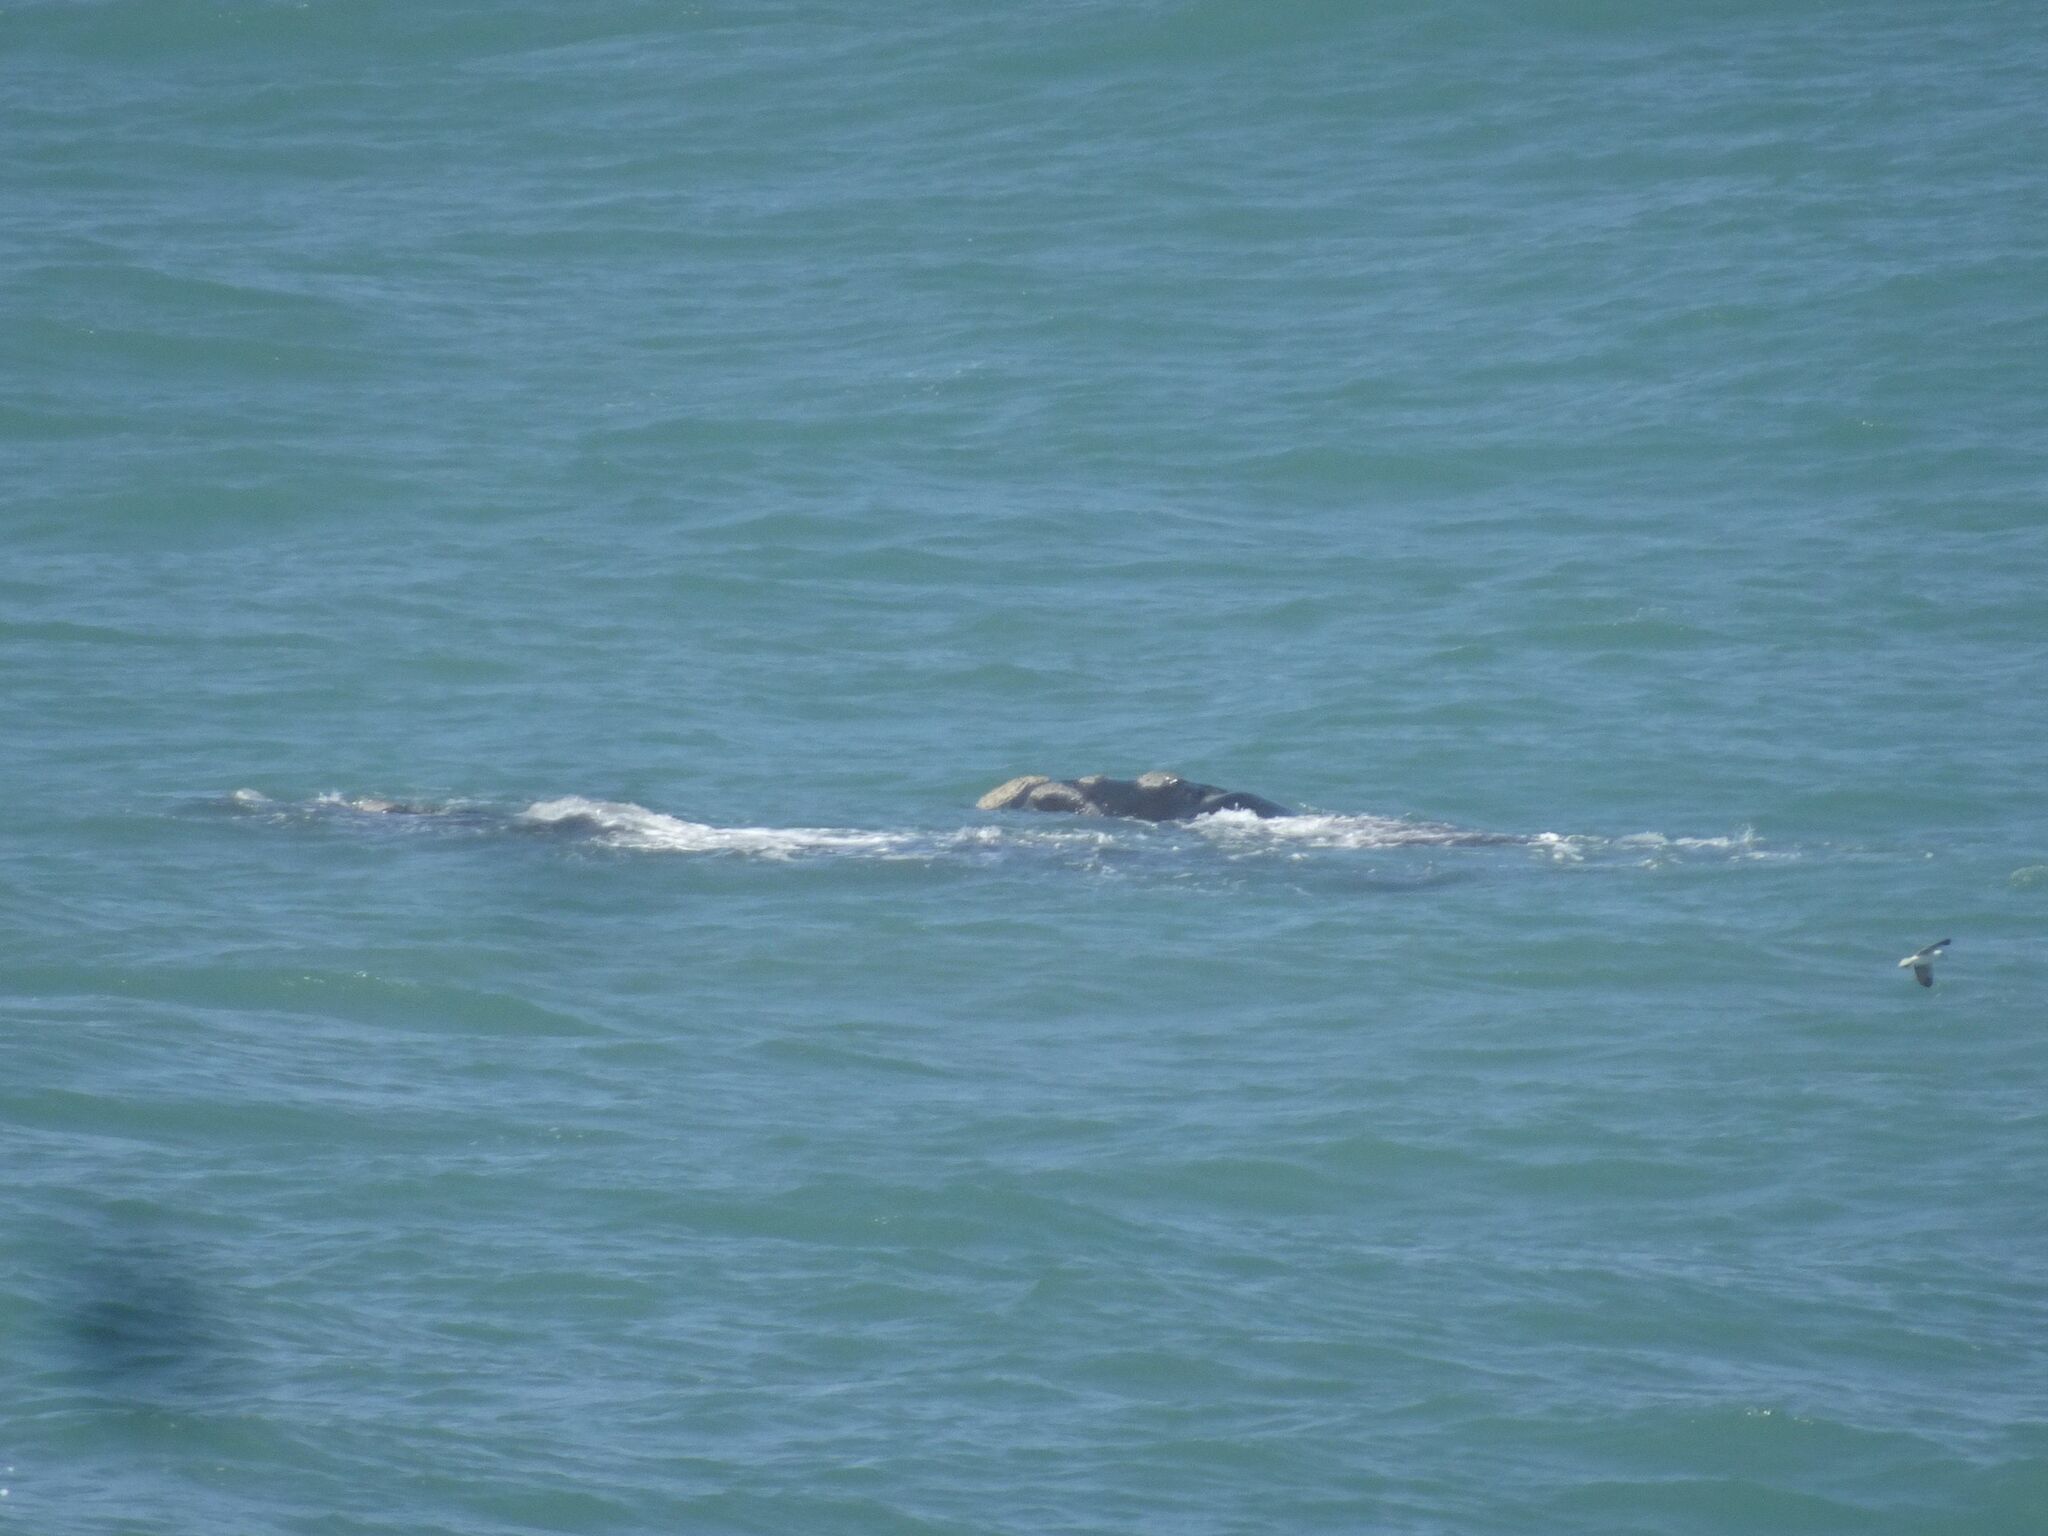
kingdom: Animalia
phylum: Chordata
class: Mammalia
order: Cetacea
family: Balaenidae
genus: Eubalaena
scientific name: Eubalaena australis
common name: Southern right whale
